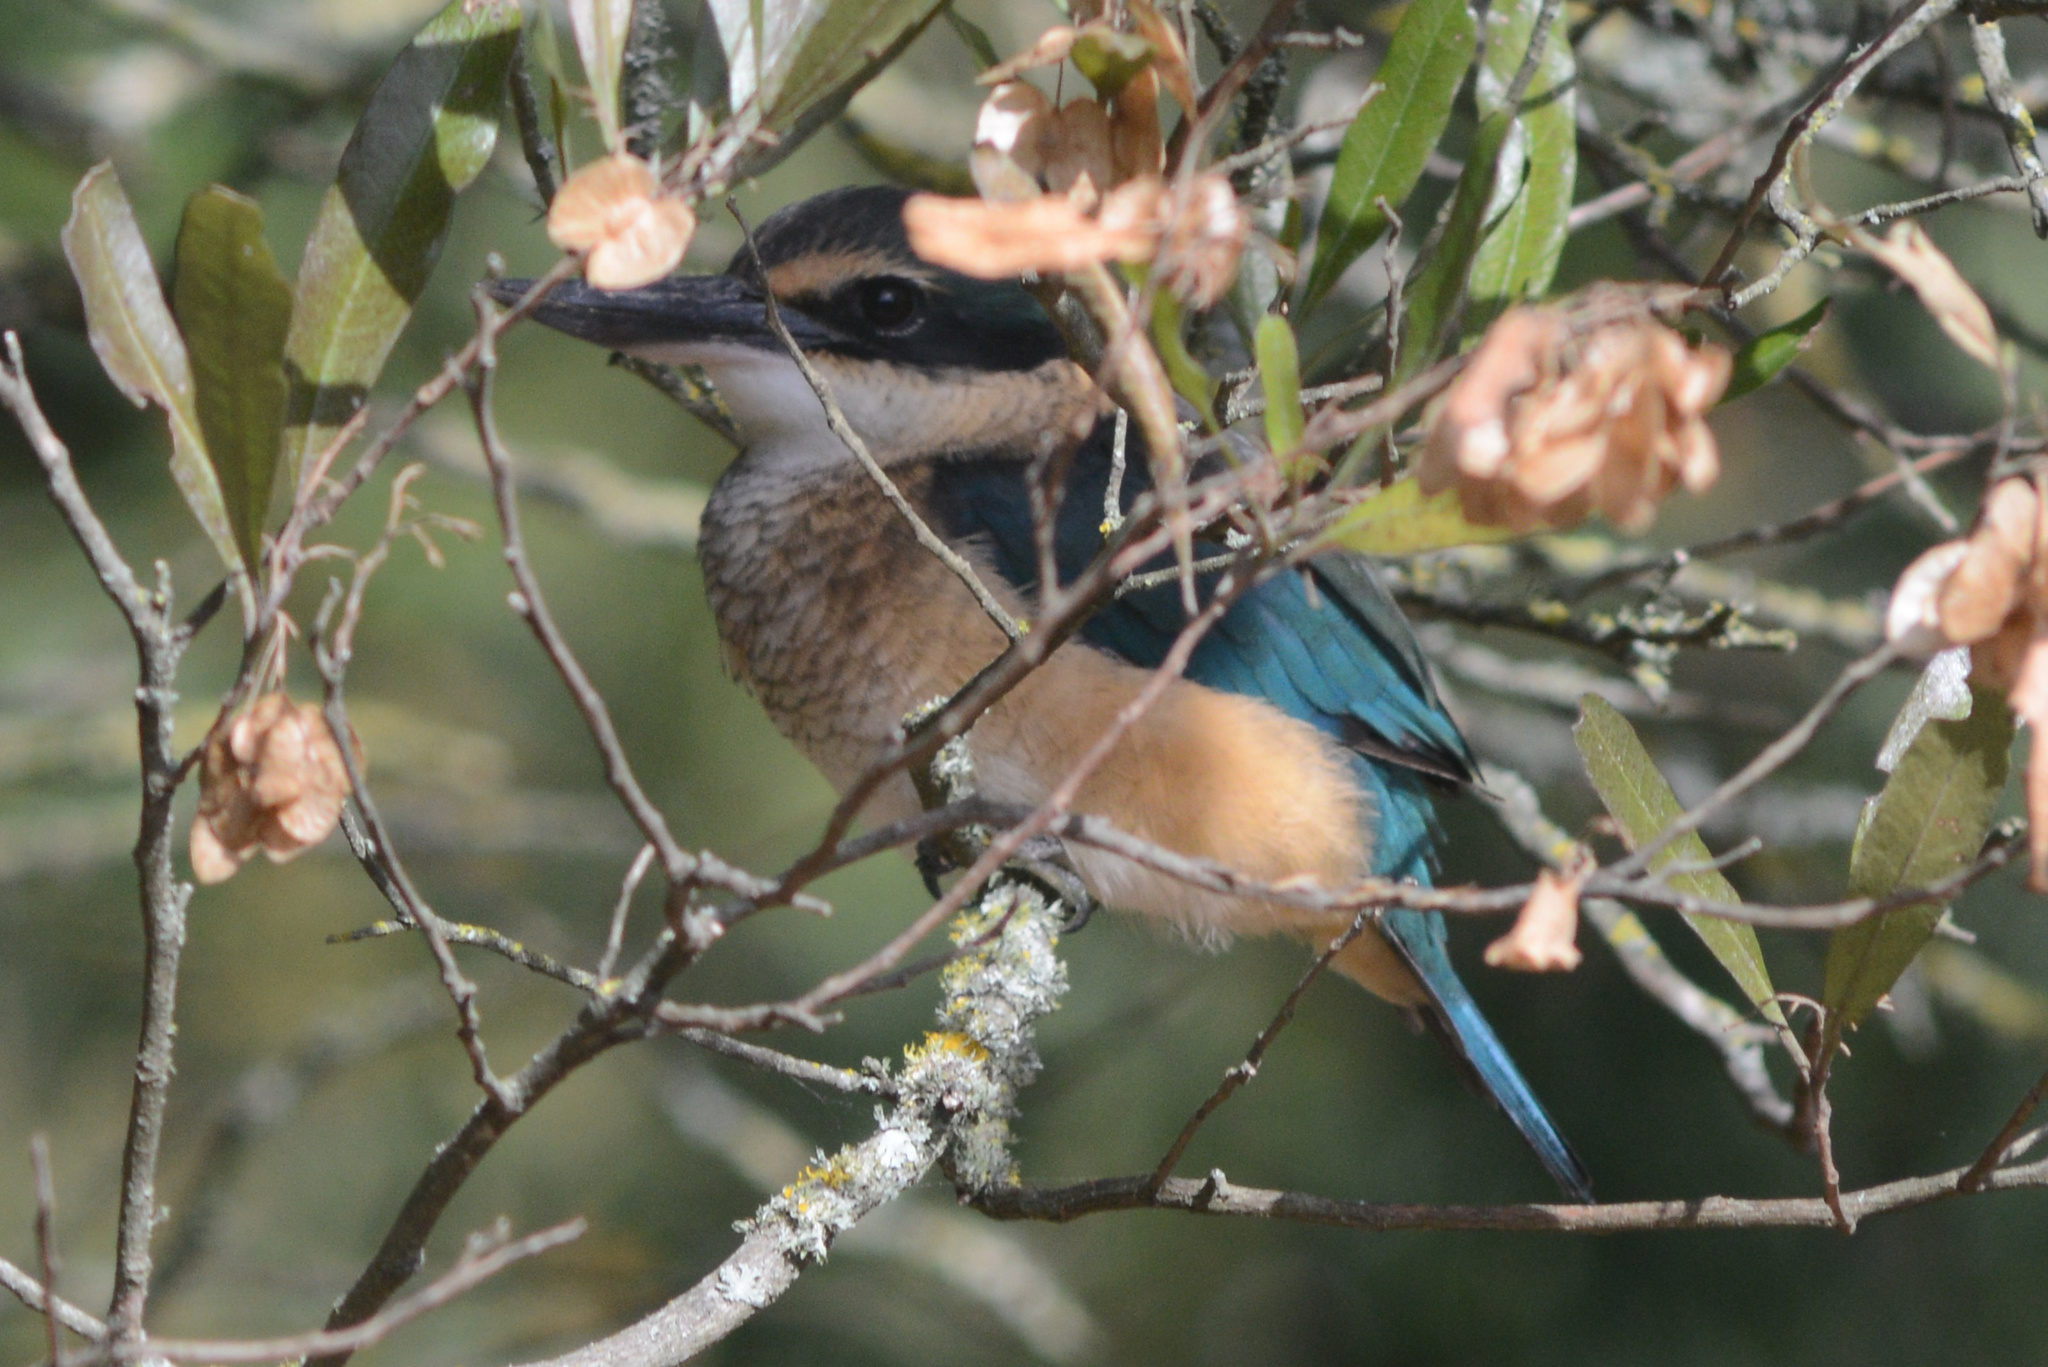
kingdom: Animalia
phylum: Chordata
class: Aves
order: Coraciiformes
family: Alcedinidae
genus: Todiramphus
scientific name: Todiramphus sanctus
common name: Sacred kingfisher
